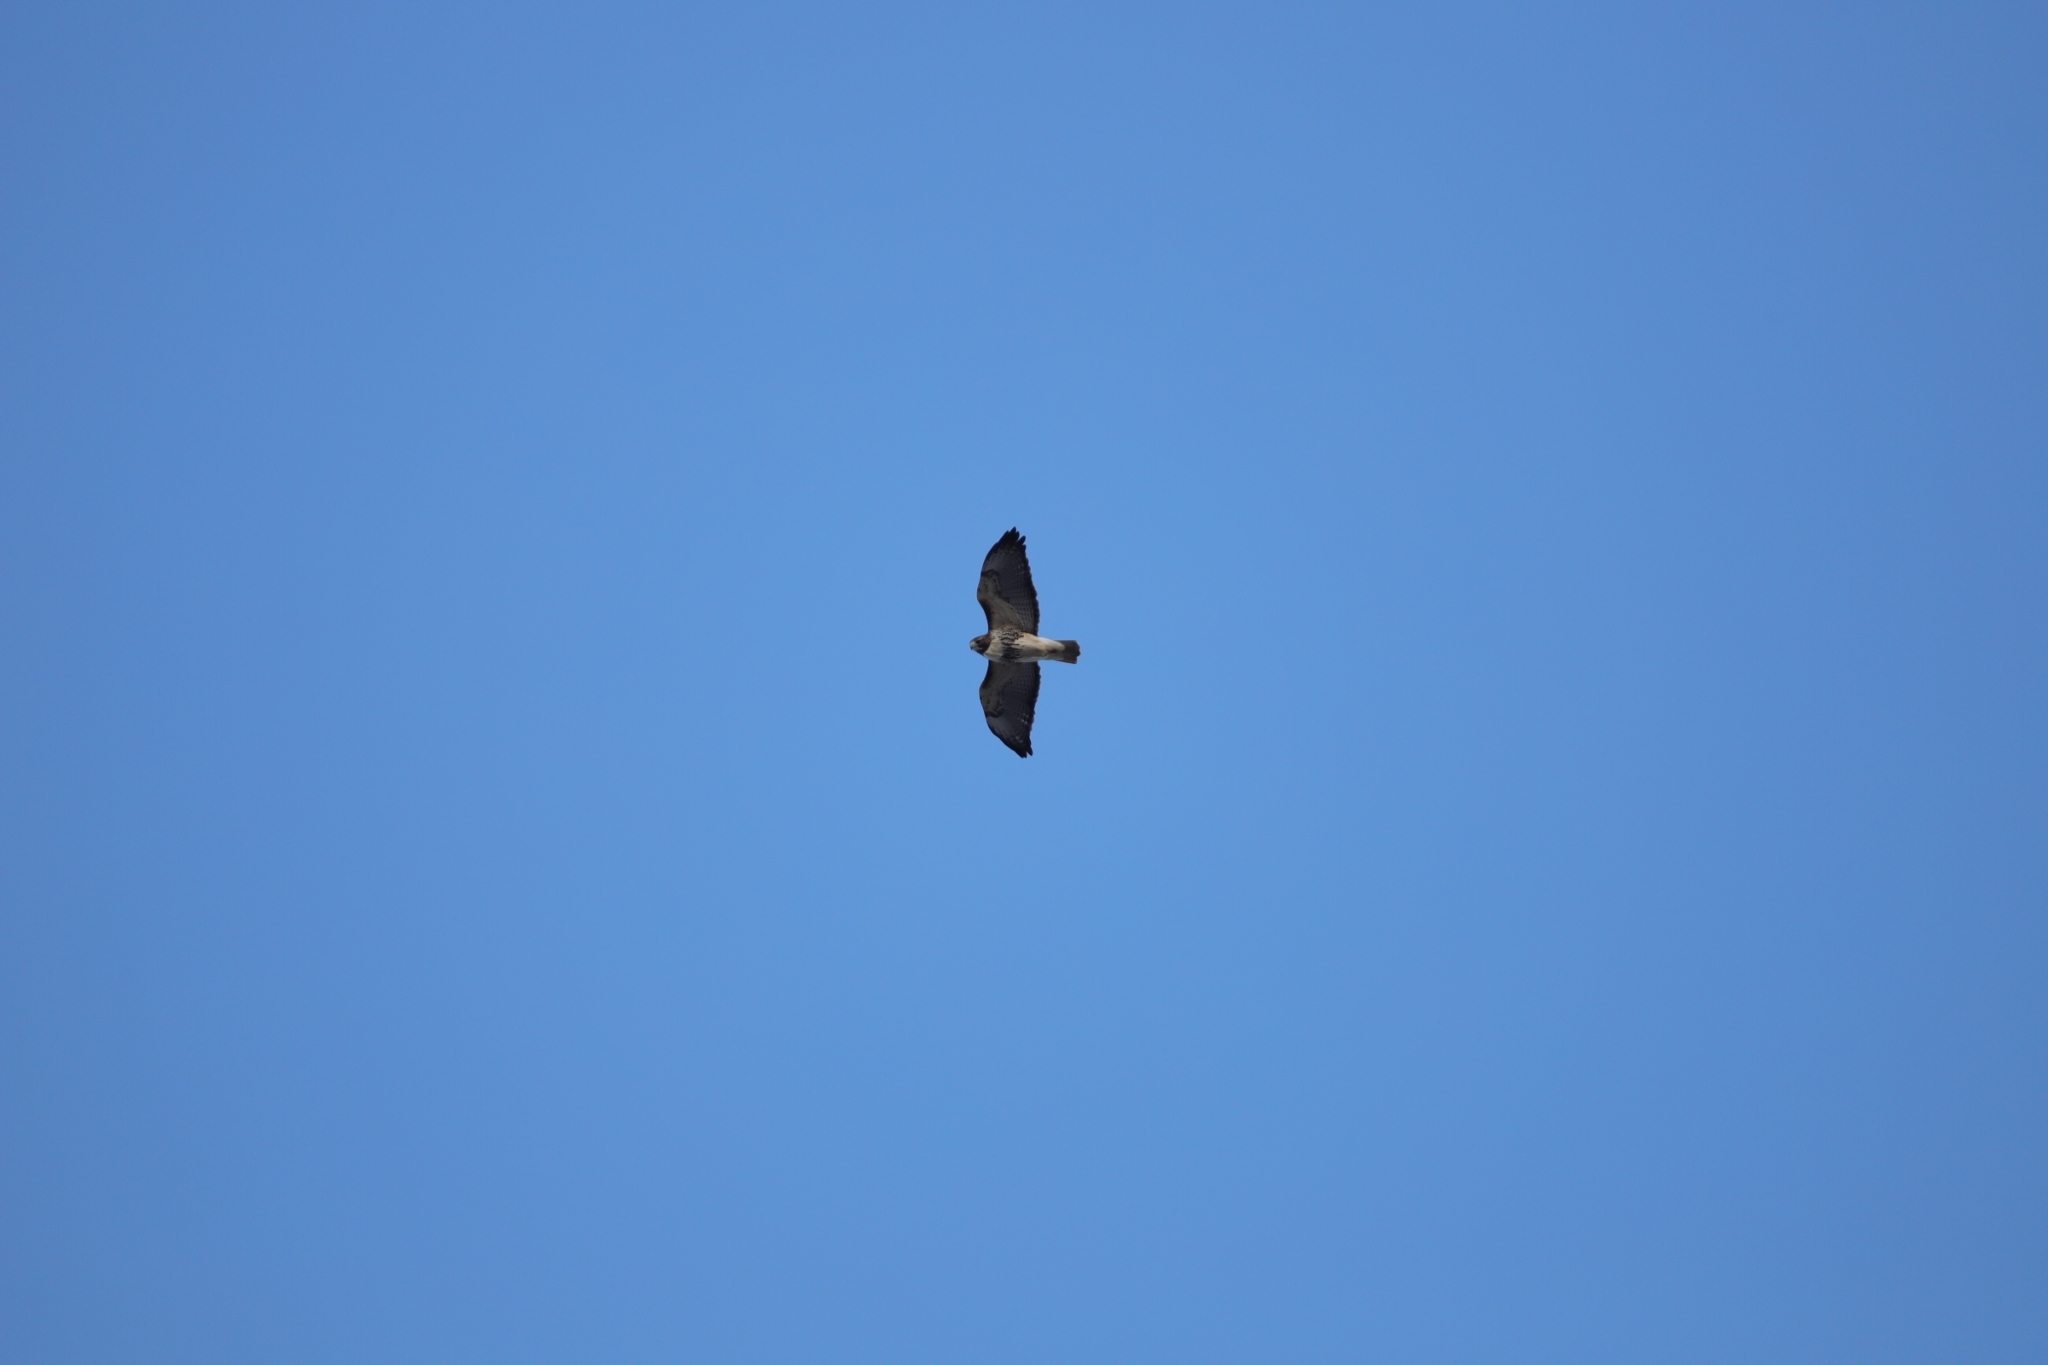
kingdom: Animalia
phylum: Chordata
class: Aves
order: Accipitriformes
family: Accipitridae
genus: Buteo
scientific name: Buteo jamaicensis
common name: Red-tailed hawk
